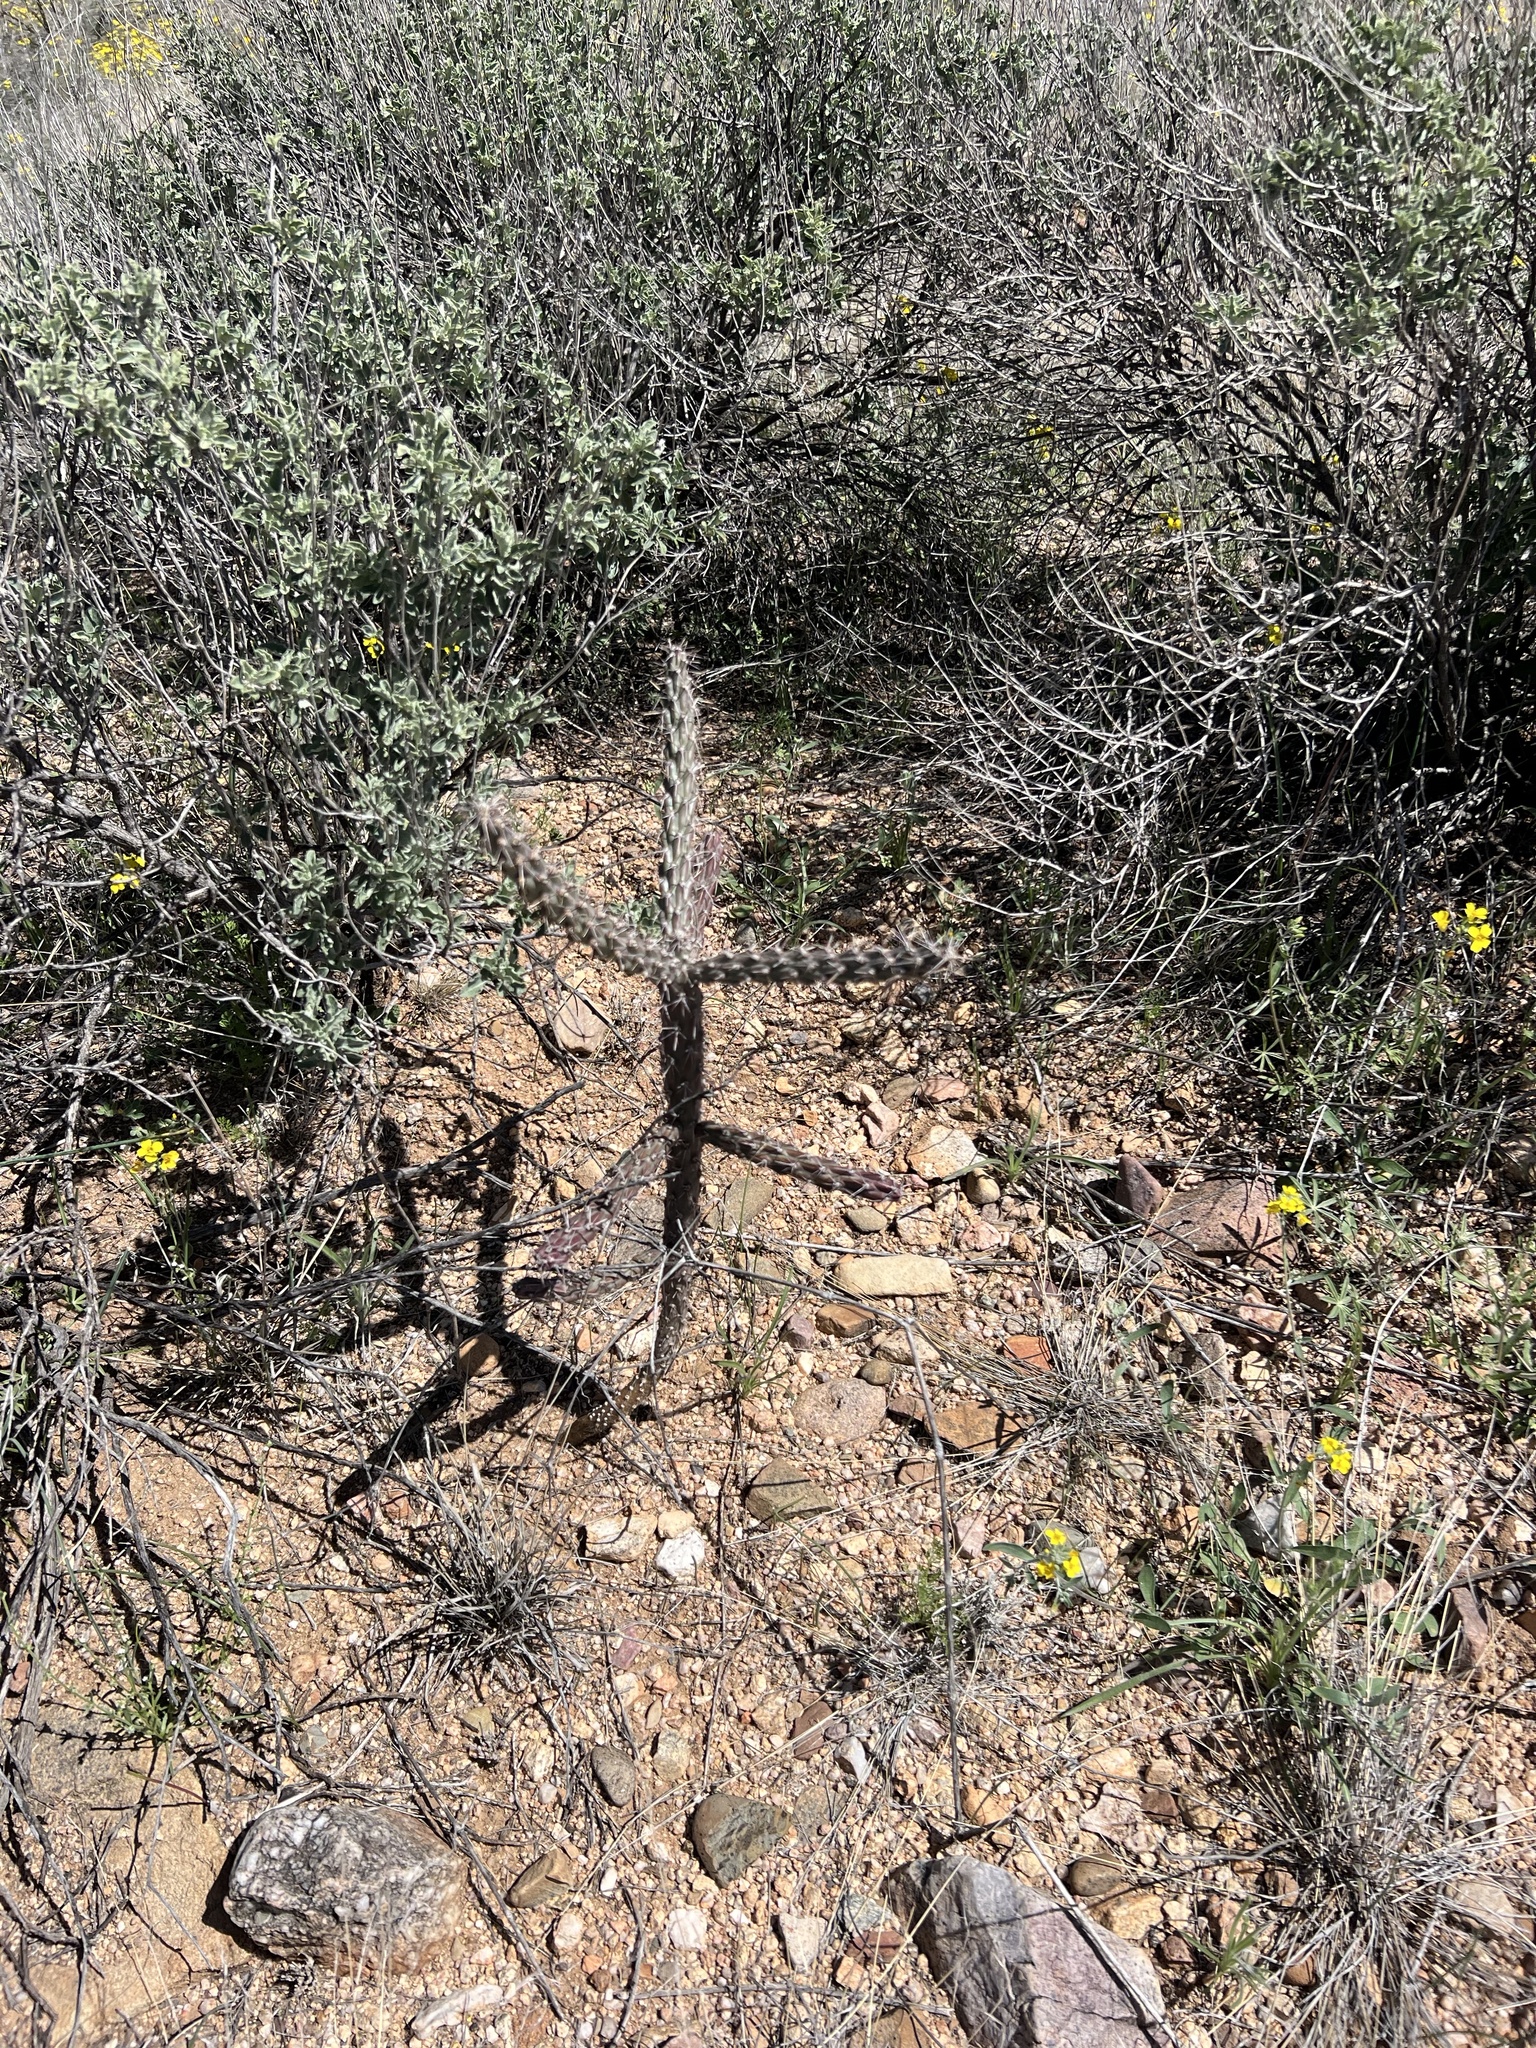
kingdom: Plantae
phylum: Tracheophyta
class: Magnoliopsida
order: Caryophyllales
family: Cactaceae
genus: Cylindropuntia
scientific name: Cylindropuntia imbricata
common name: Candelabrum cactus
